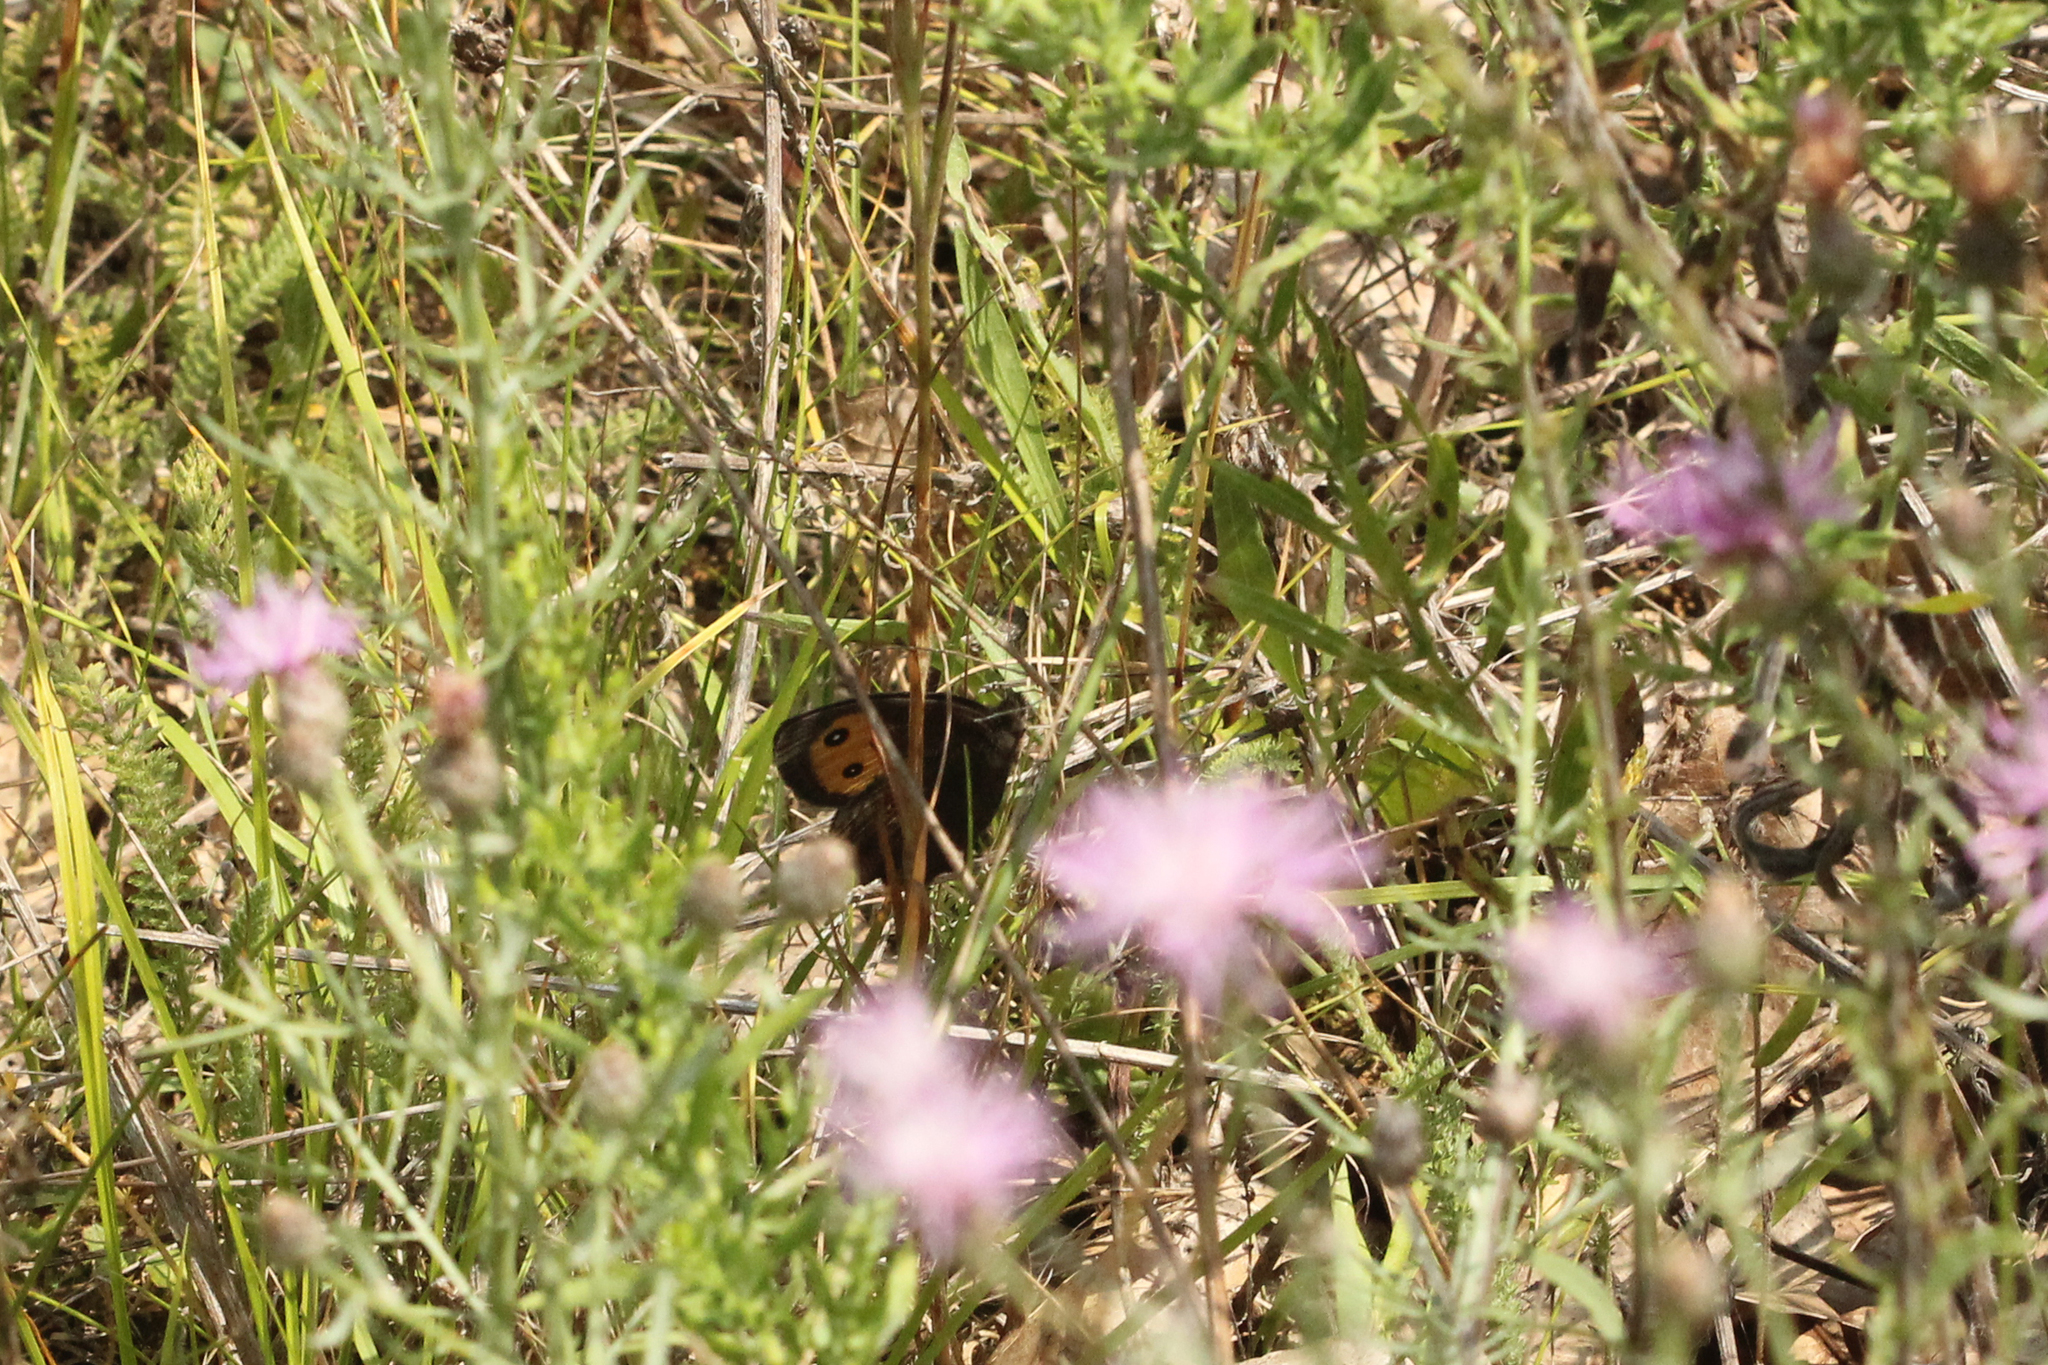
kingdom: Animalia
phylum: Arthropoda
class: Insecta
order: Lepidoptera
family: Nymphalidae
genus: Cercyonis
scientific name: Cercyonis pegala
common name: Common wood-nymph
